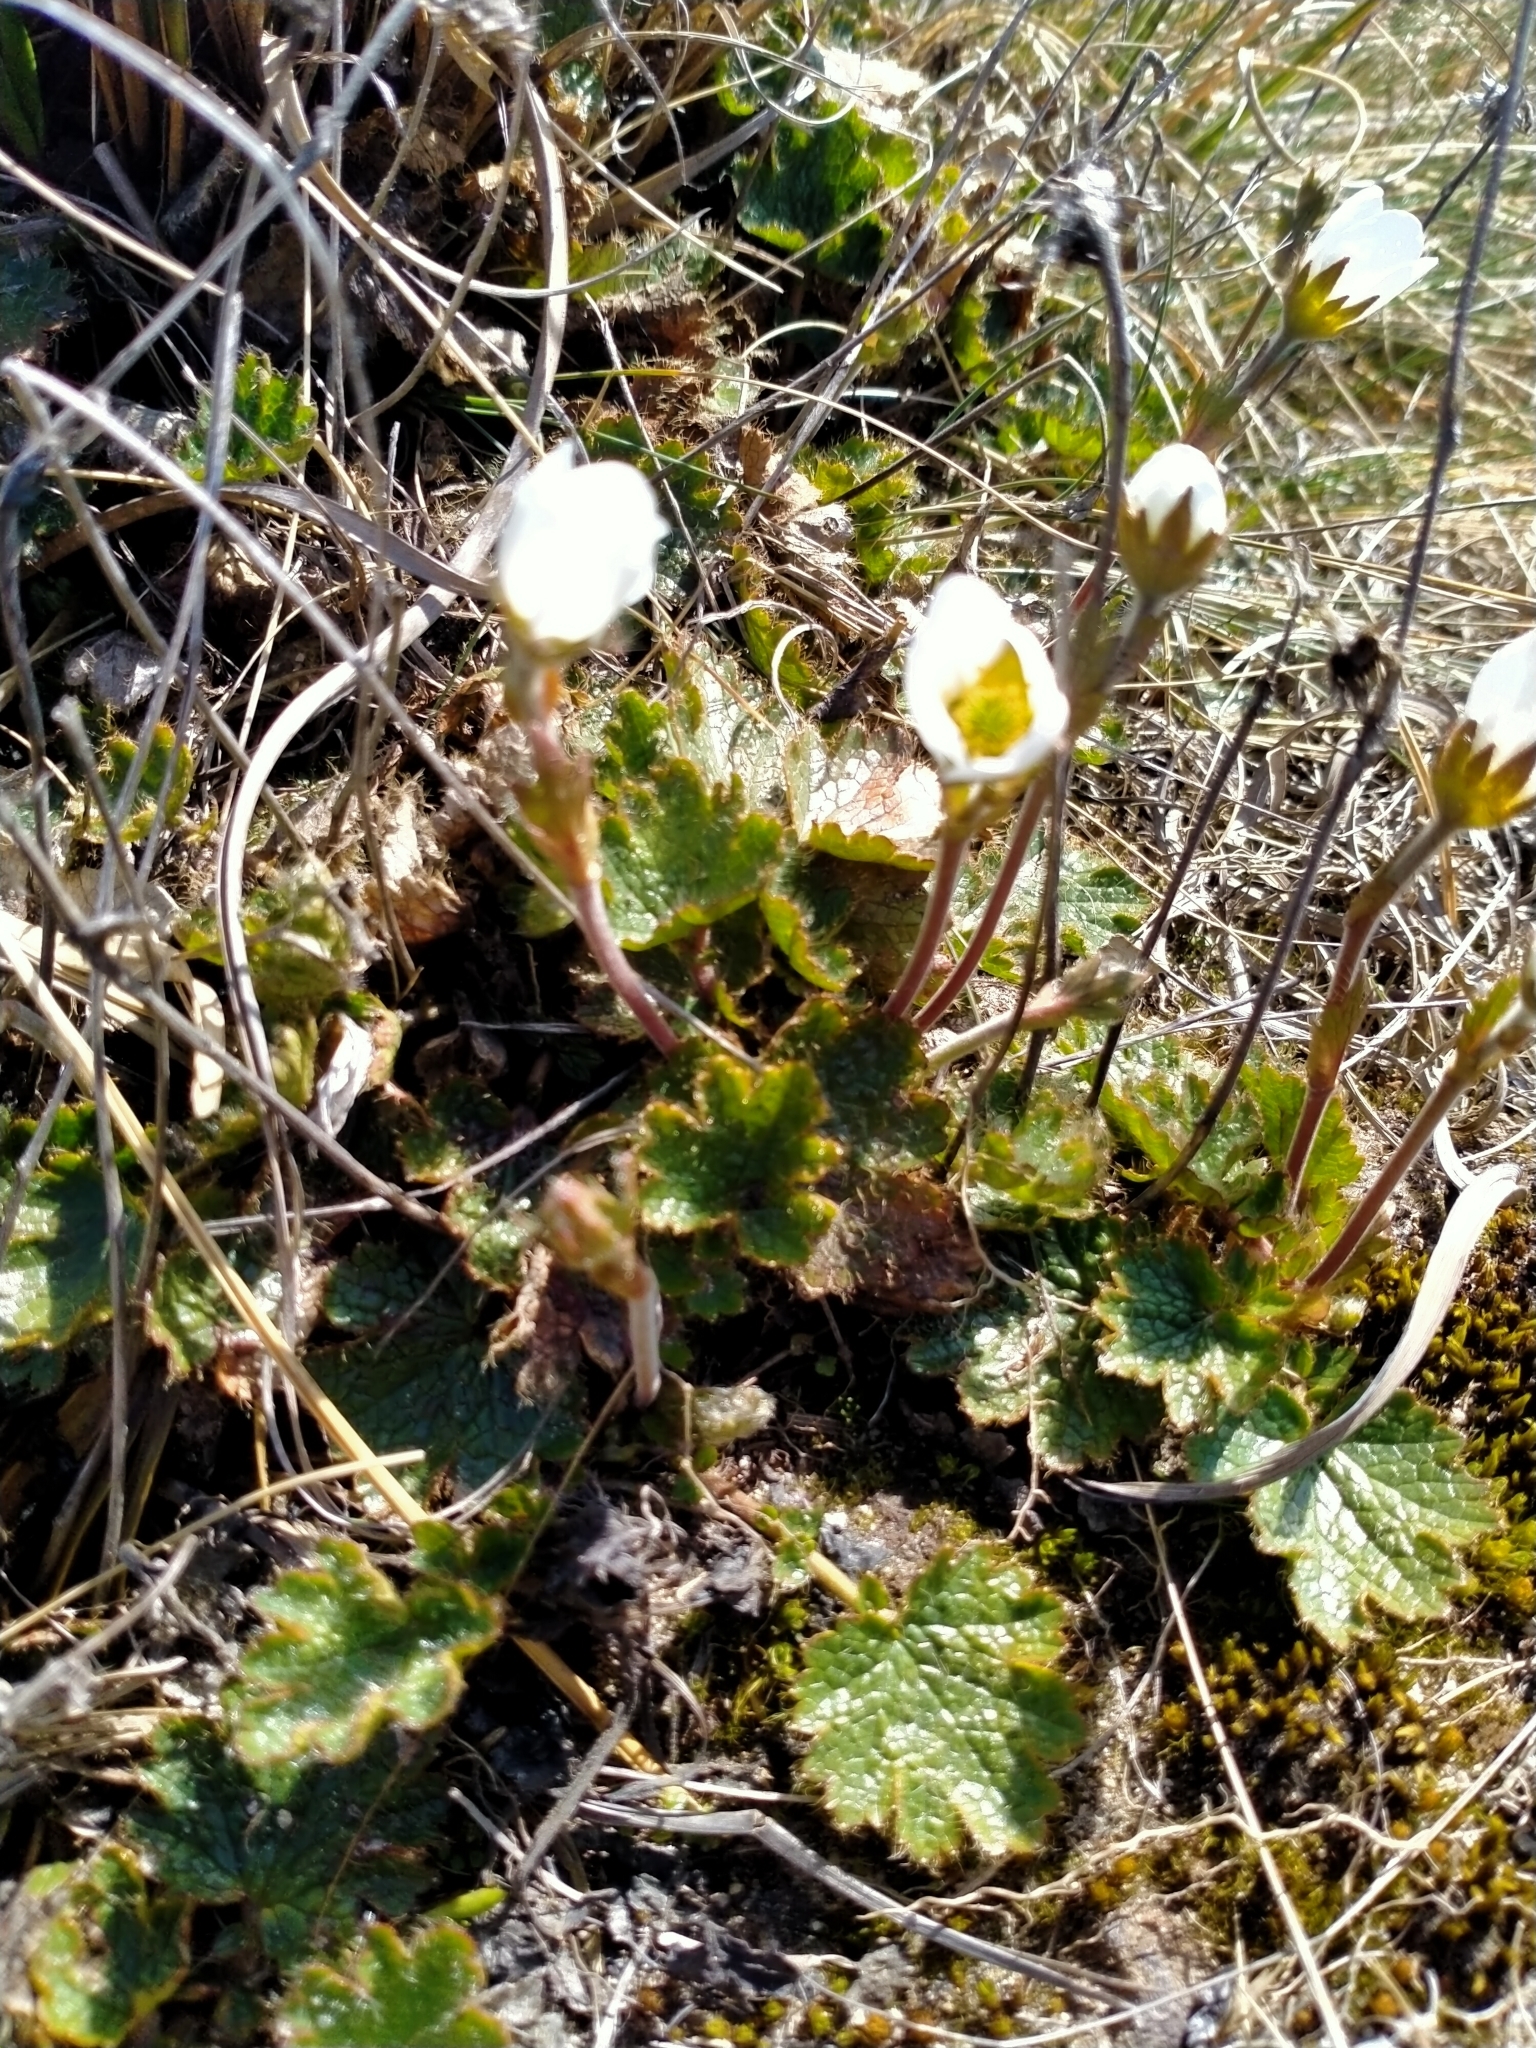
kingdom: Plantae
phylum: Tracheophyta
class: Magnoliopsida
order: Rosales
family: Rosaceae
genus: Geum
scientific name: Geum uniflorum
